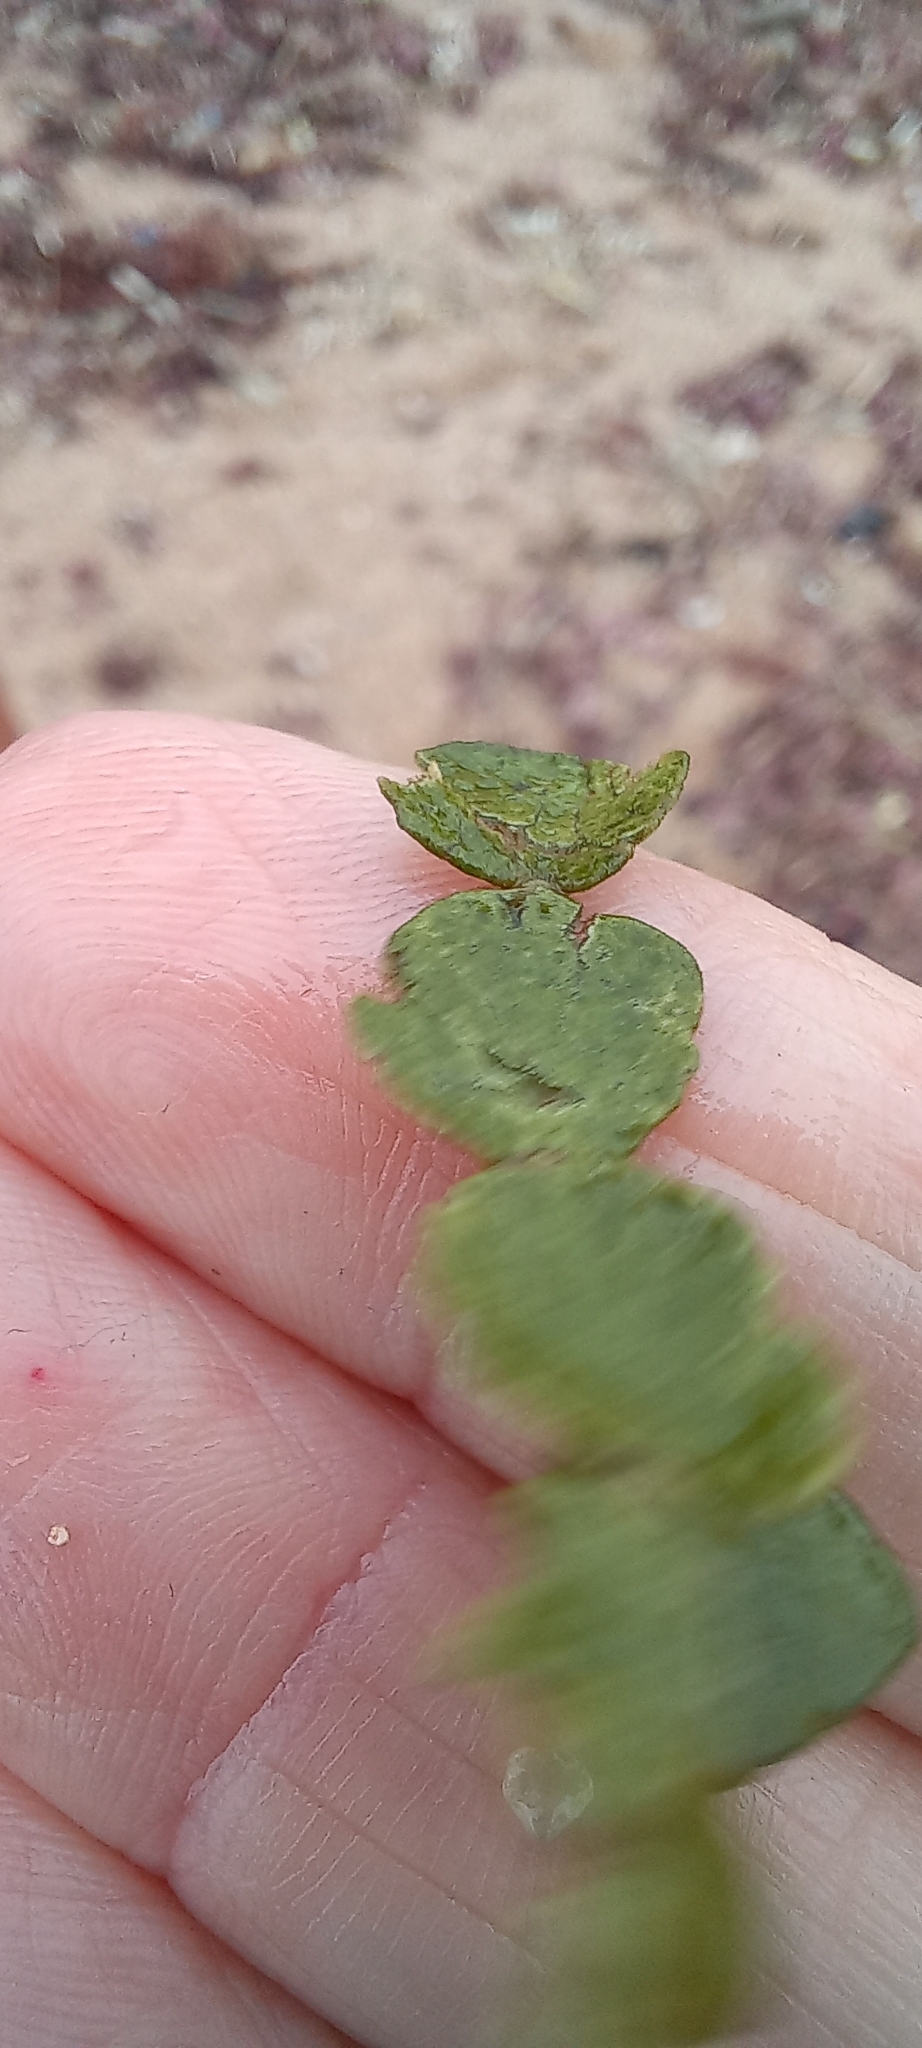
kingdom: Plantae
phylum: Chlorophyta
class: Ulvophyceae
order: Bryopsidales
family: Halimedaceae
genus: Halimeda
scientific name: Halimeda cuneata
